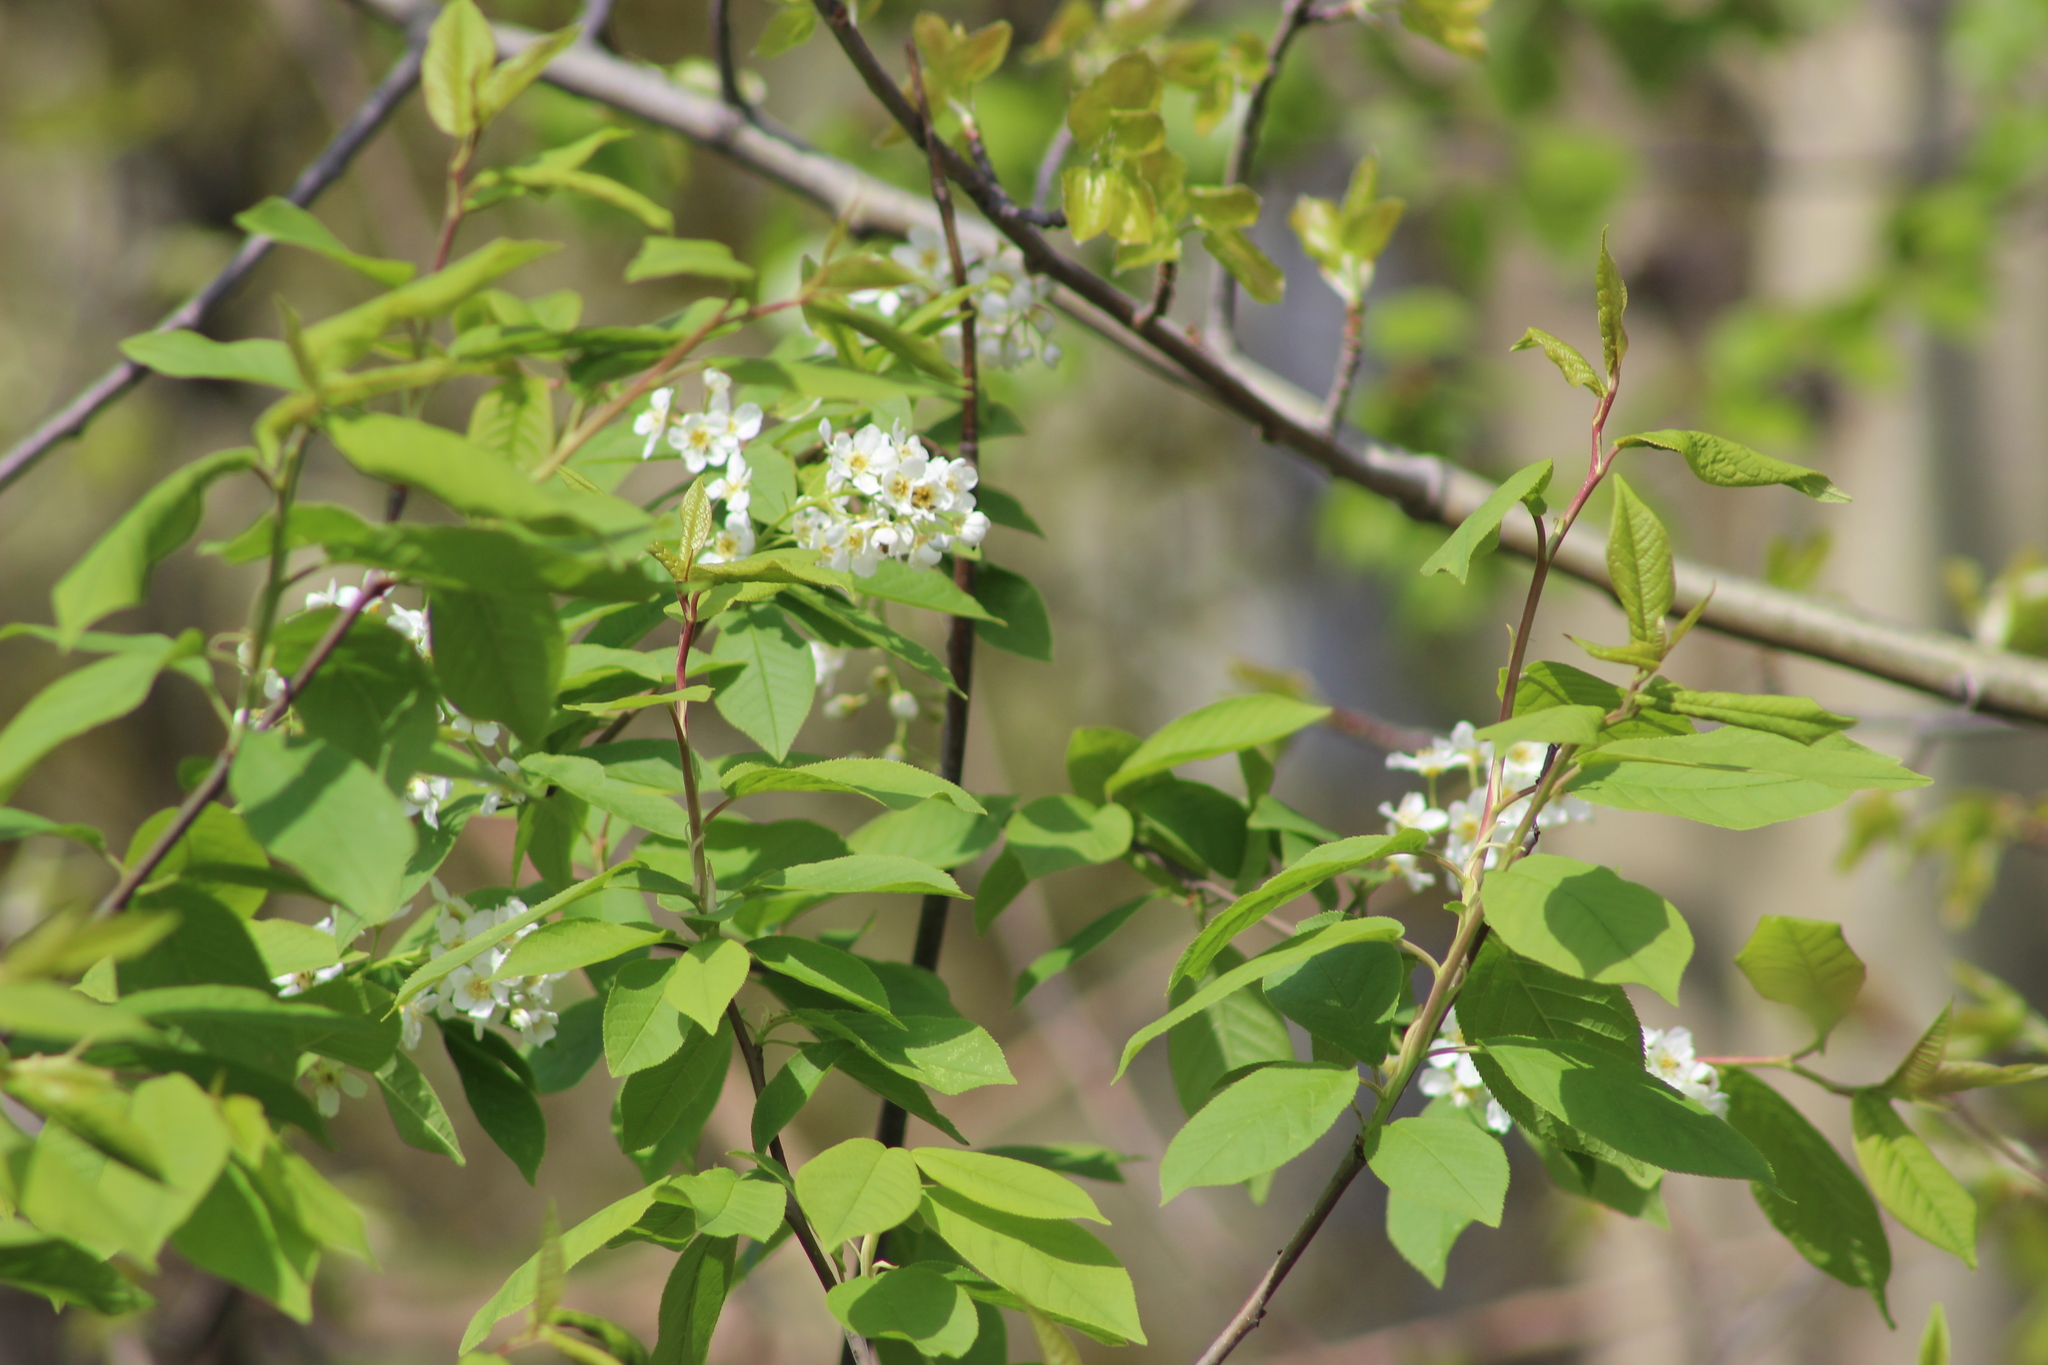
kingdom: Plantae
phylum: Tracheophyta
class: Magnoliopsida
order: Rosales
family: Rosaceae
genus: Prunus
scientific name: Prunus padus
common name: Bird cherry
